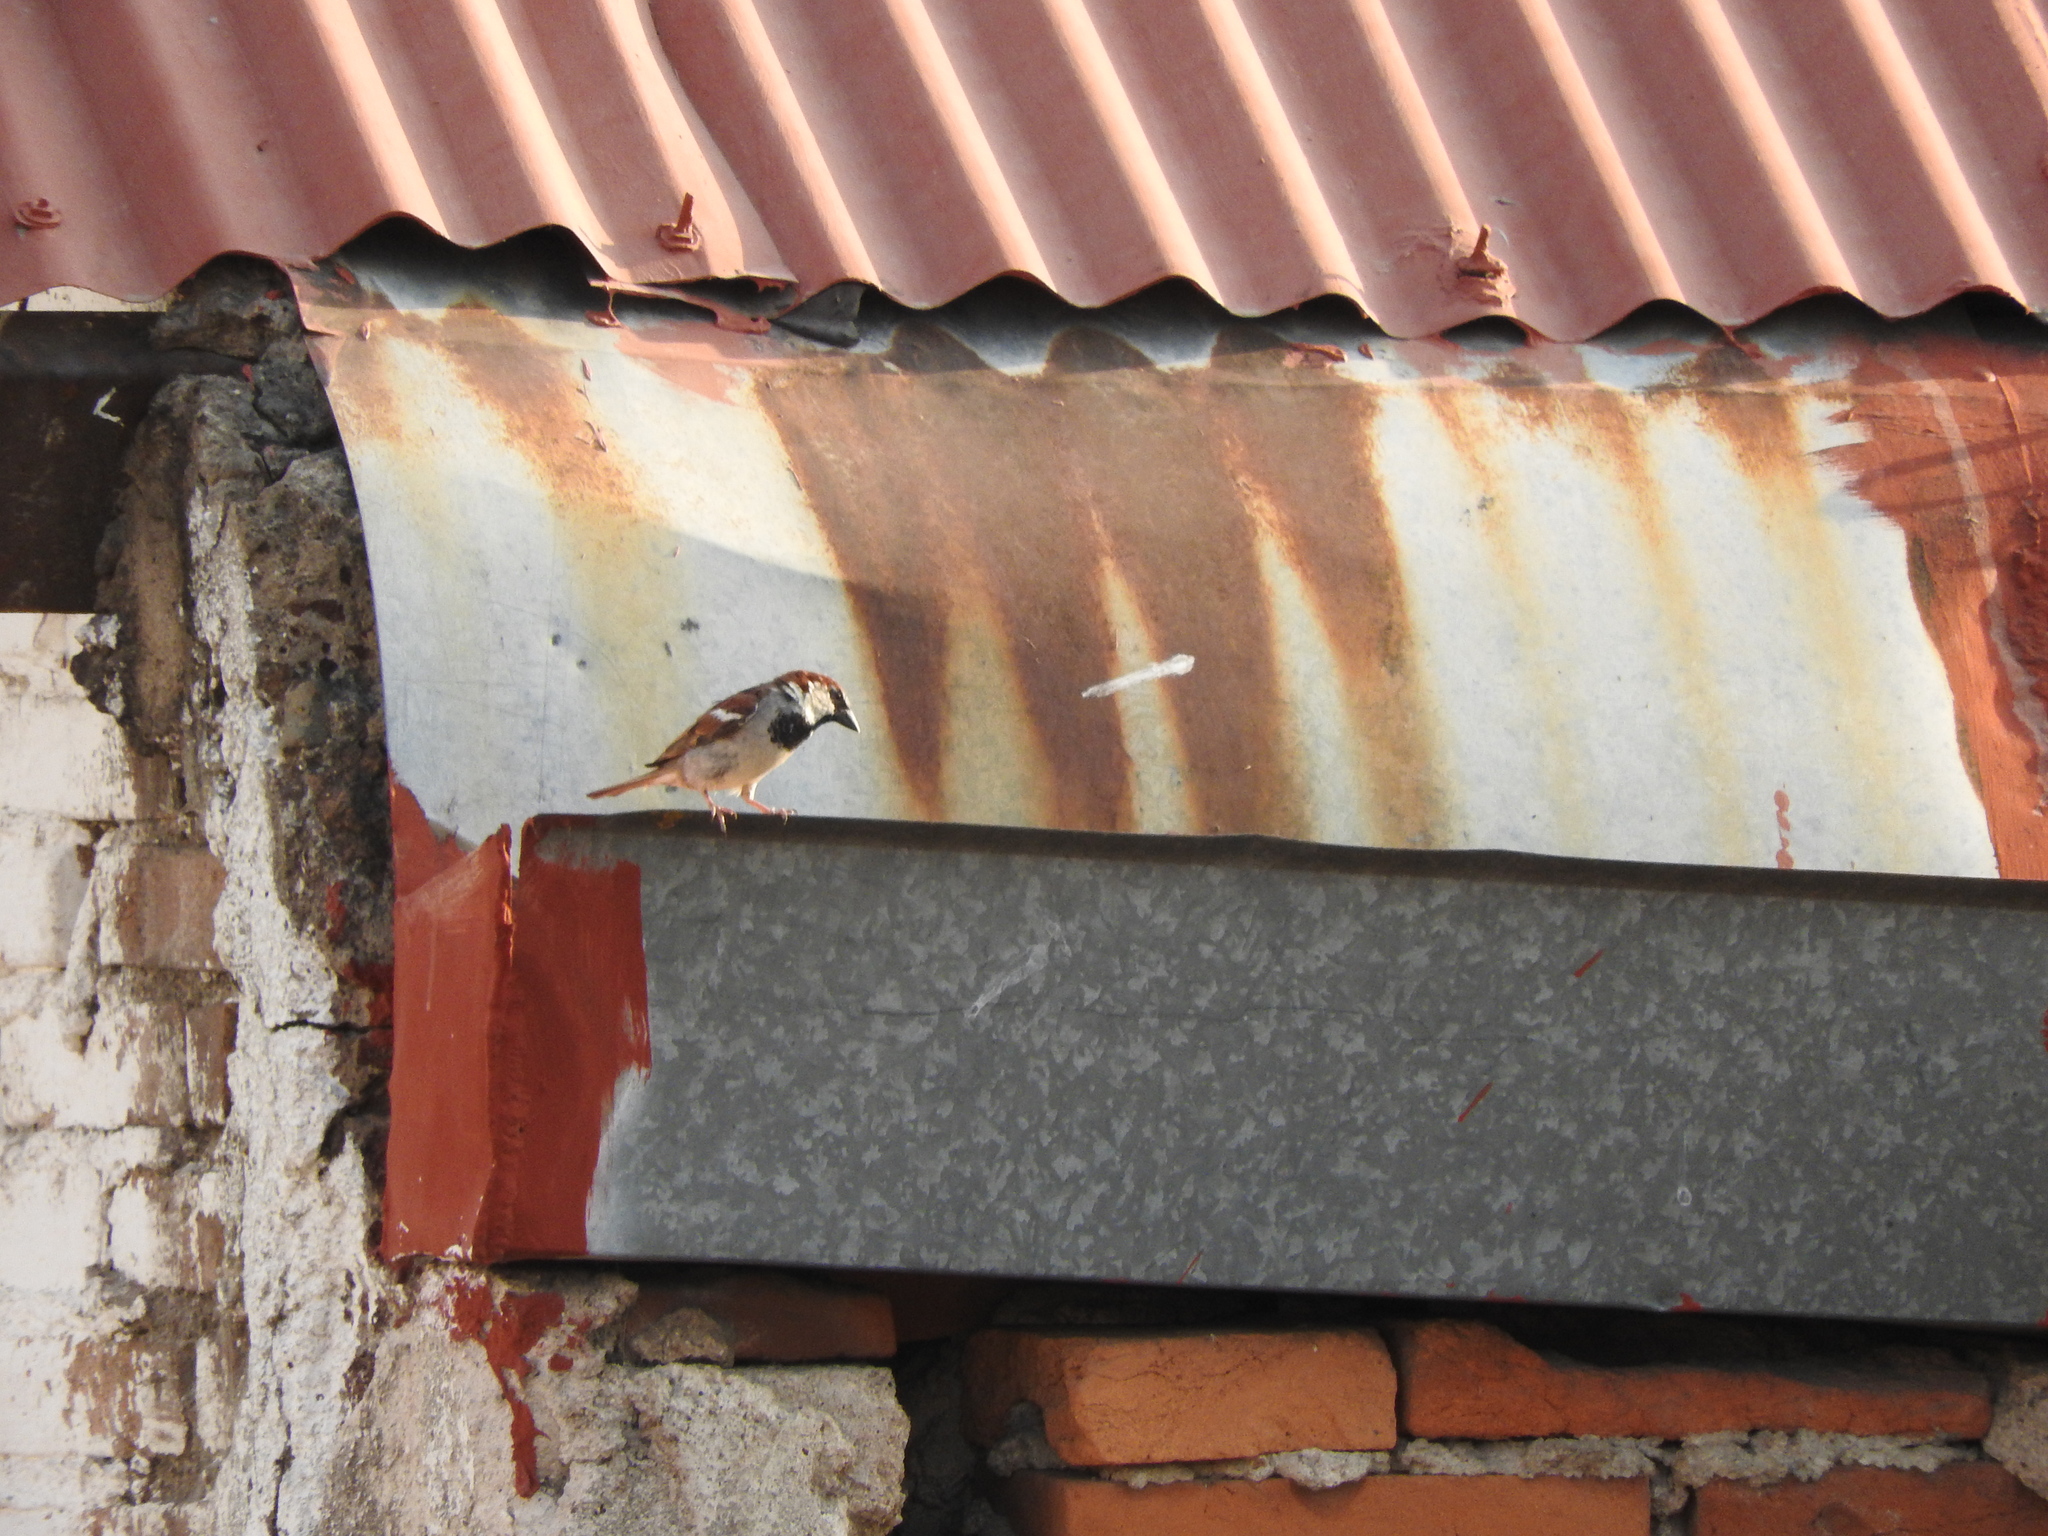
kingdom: Animalia
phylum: Chordata
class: Aves
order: Passeriformes
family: Passeridae
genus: Passer
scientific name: Passer domesticus
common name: House sparrow
